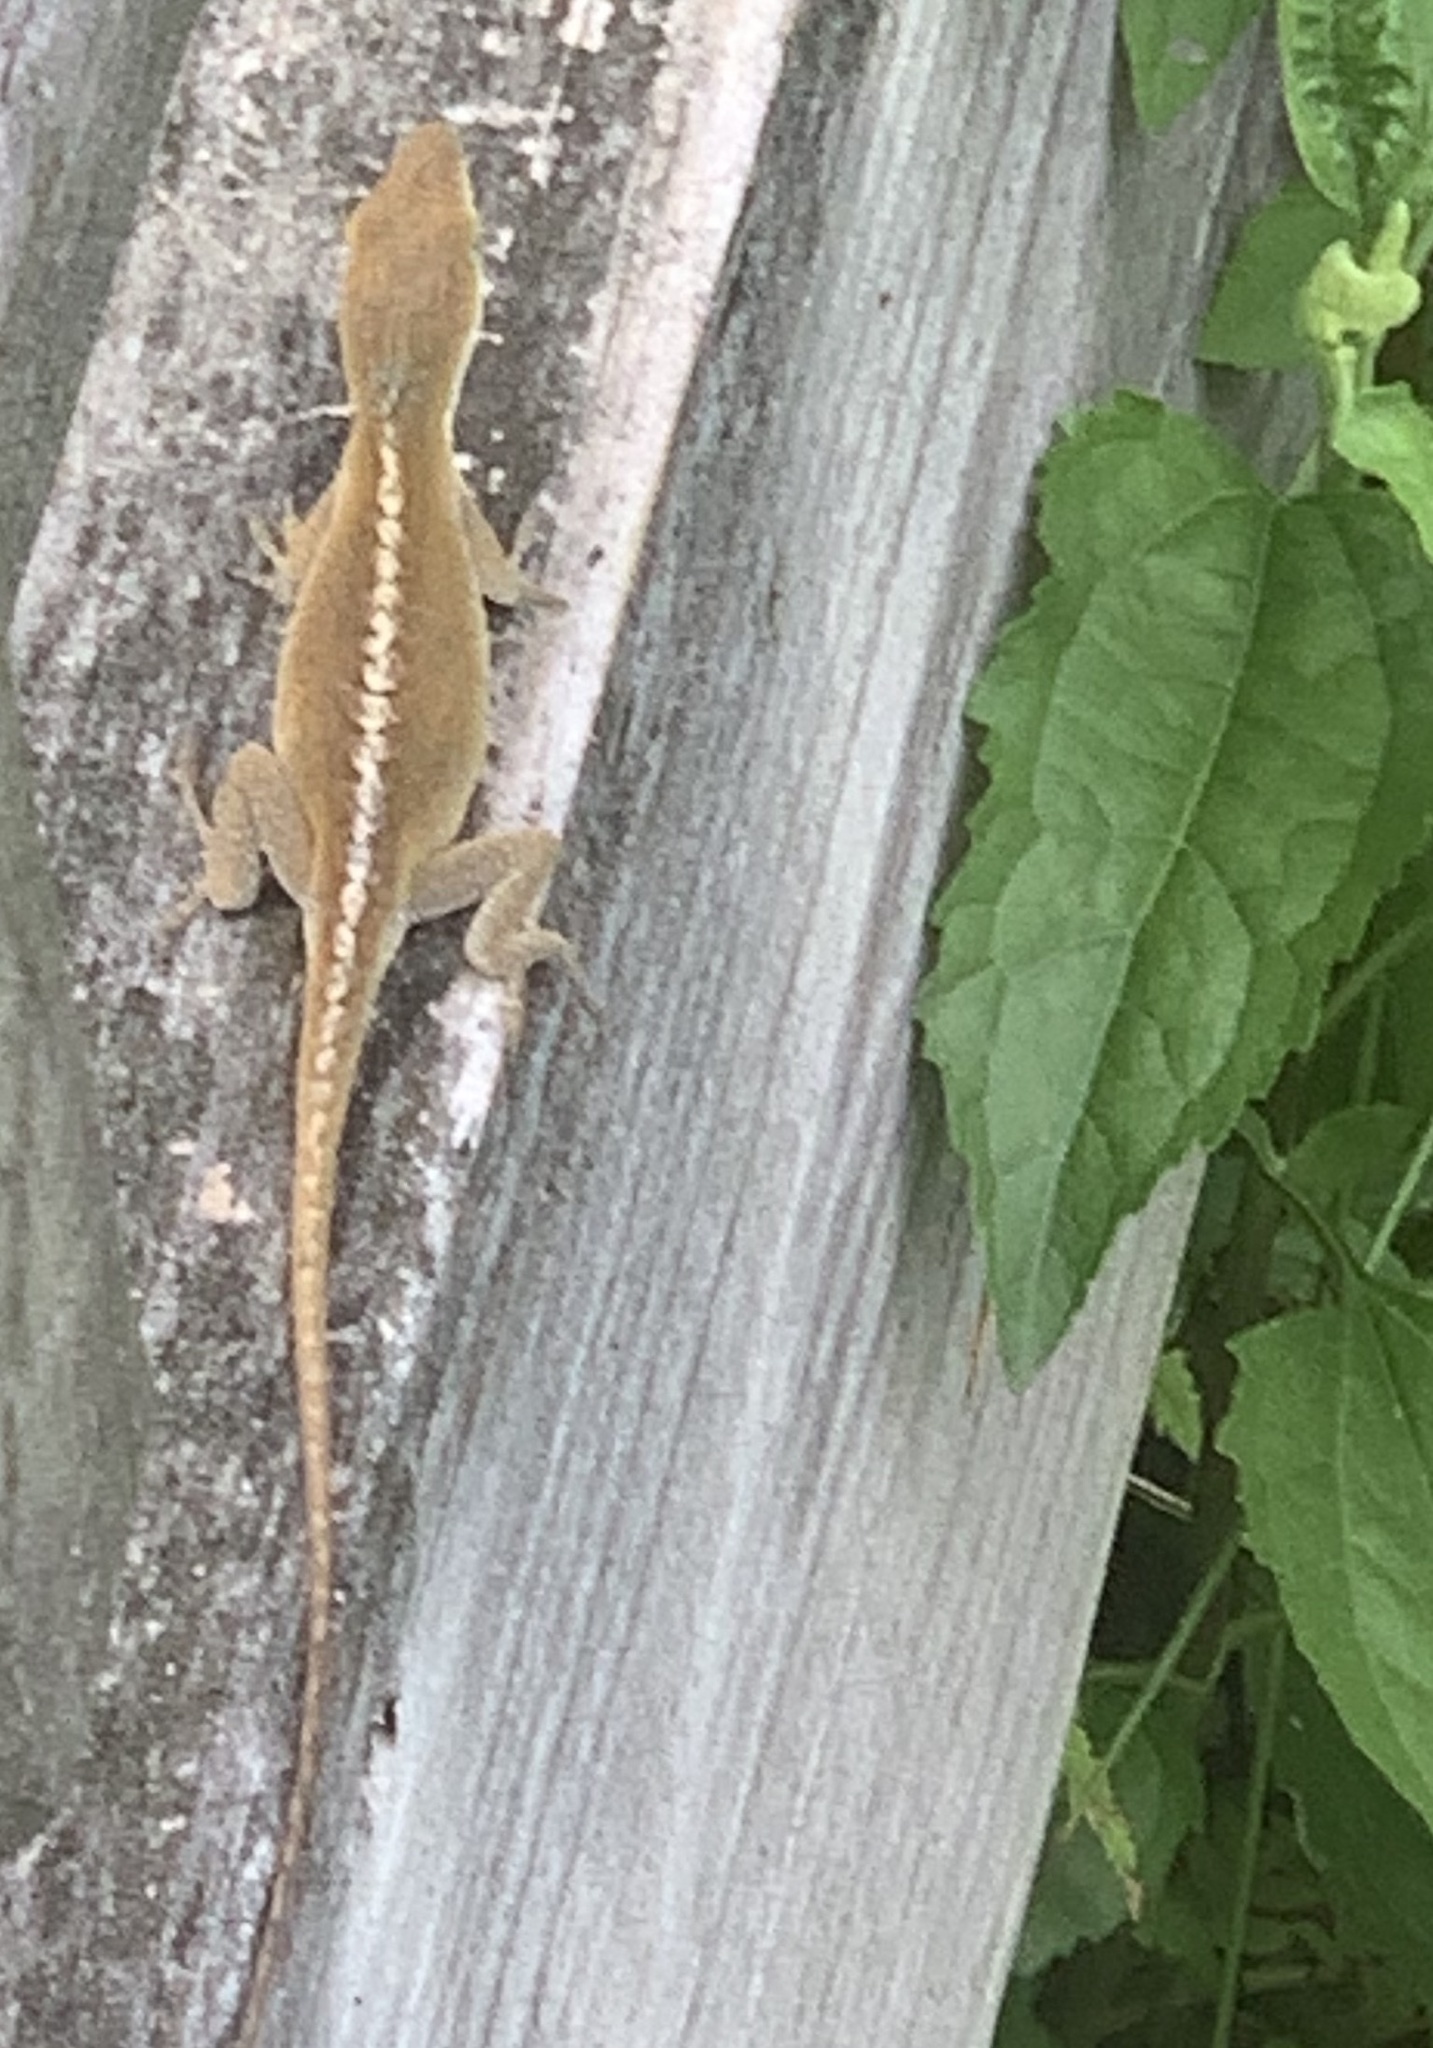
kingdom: Animalia
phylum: Chordata
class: Squamata
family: Dactyloidae
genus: Anolis
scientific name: Anolis carolinensis
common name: Green anole
